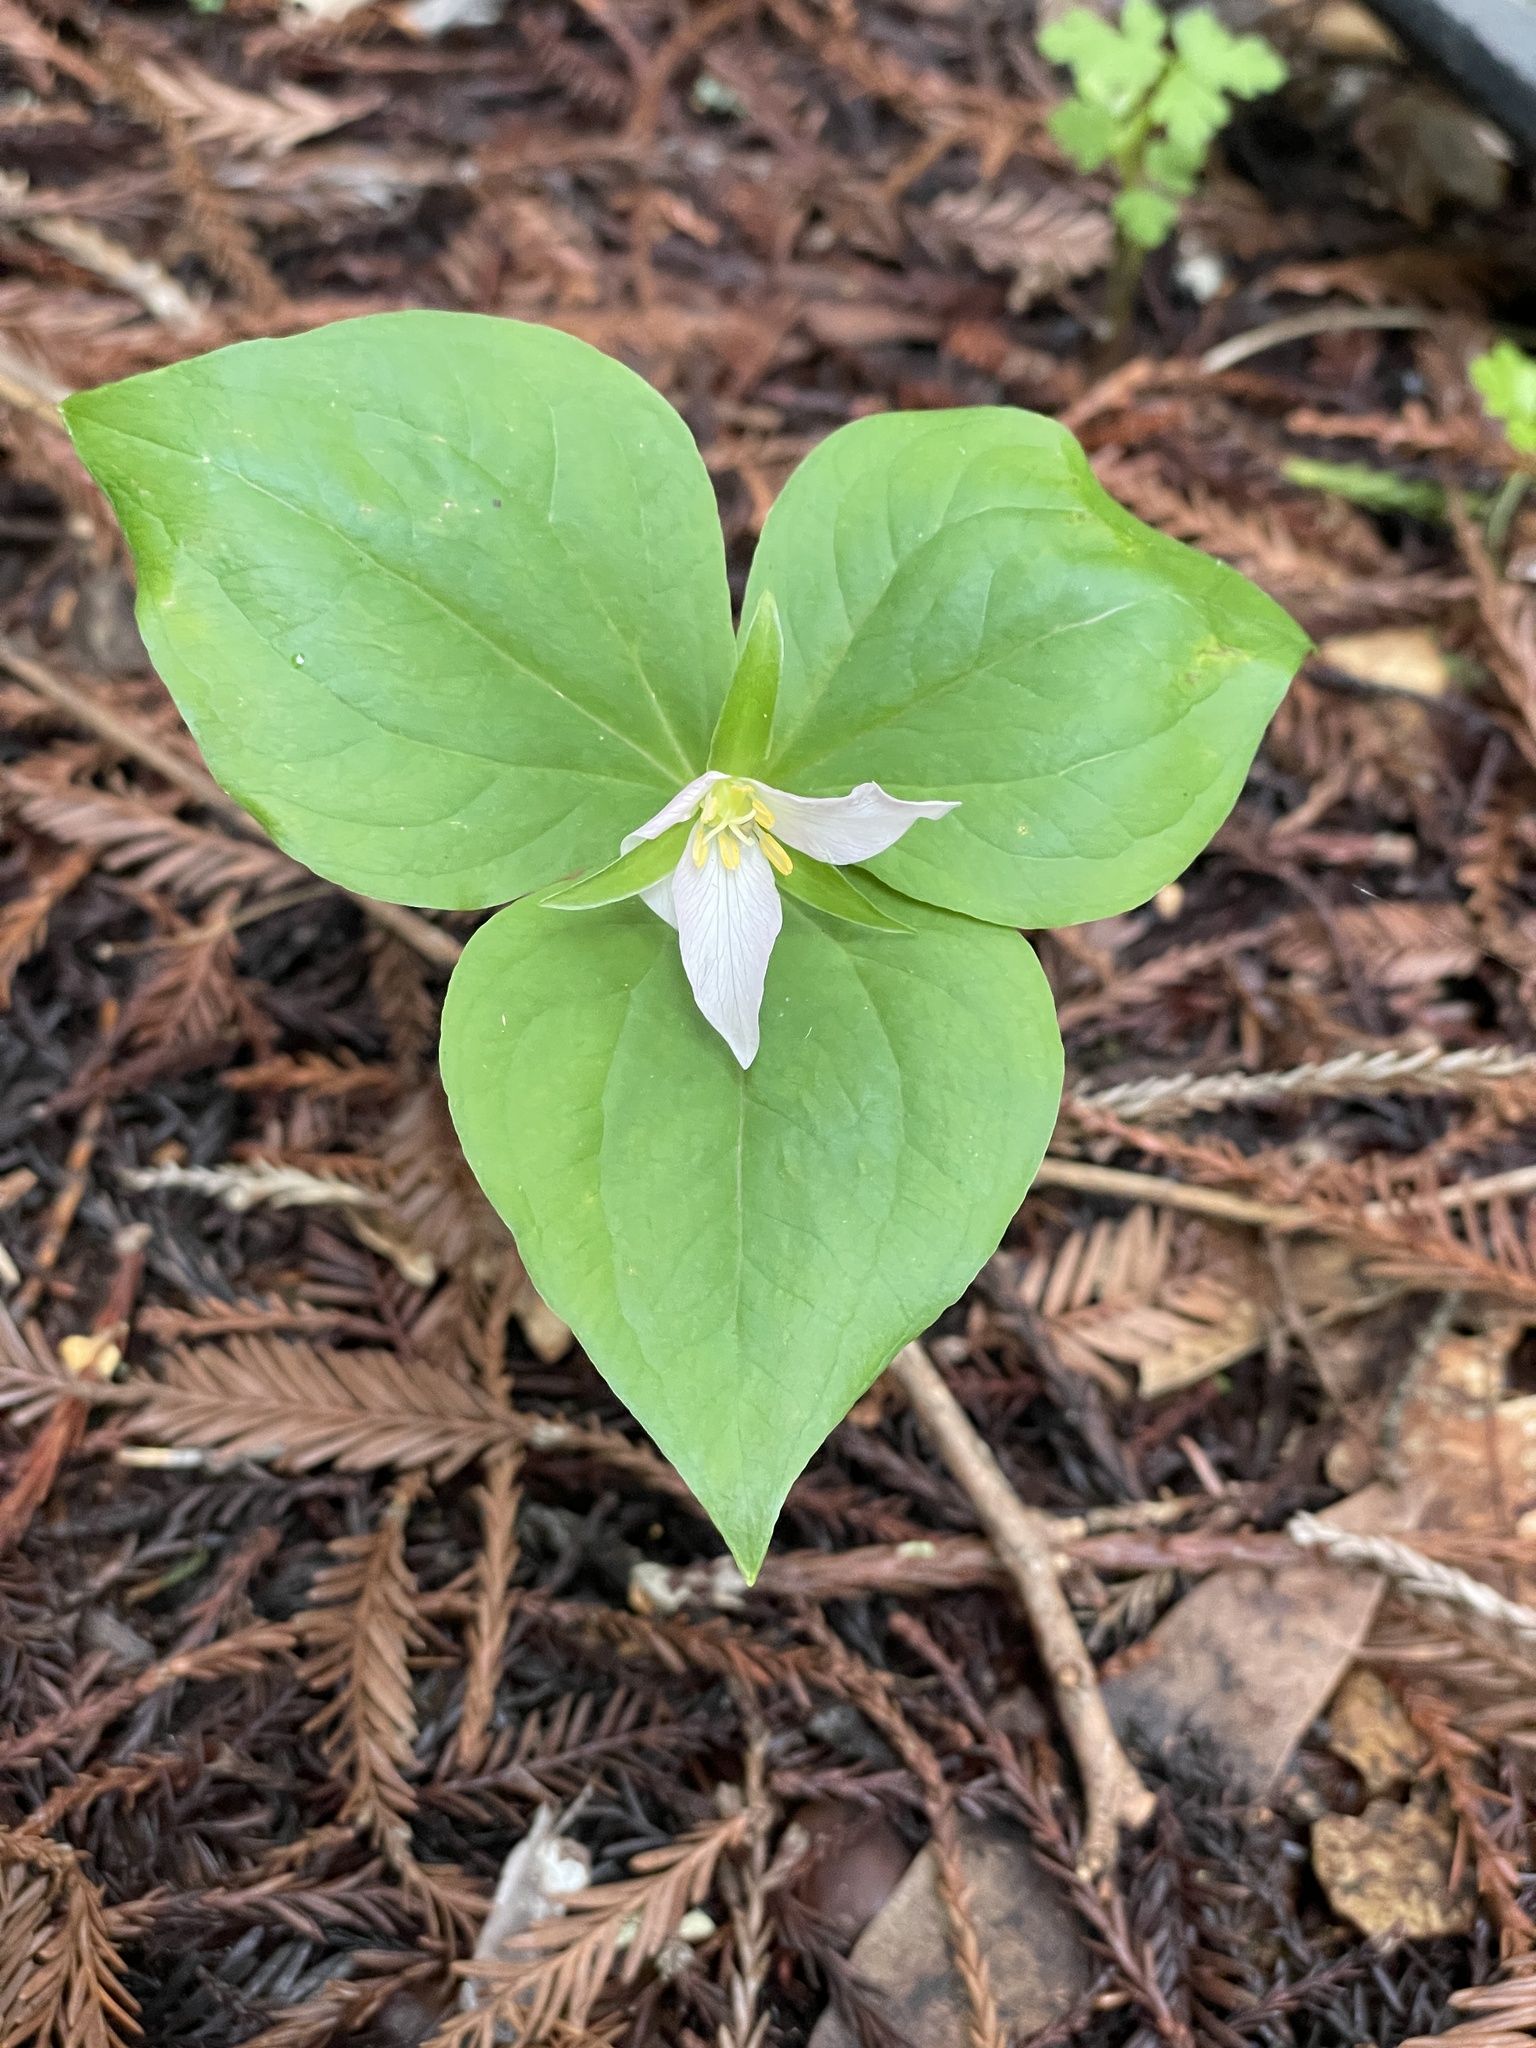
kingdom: Plantae
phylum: Tracheophyta
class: Liliopsida
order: Liliales
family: Melanthiaceae
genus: Trillium
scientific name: Trillium ovatum
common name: Pacific trillium
